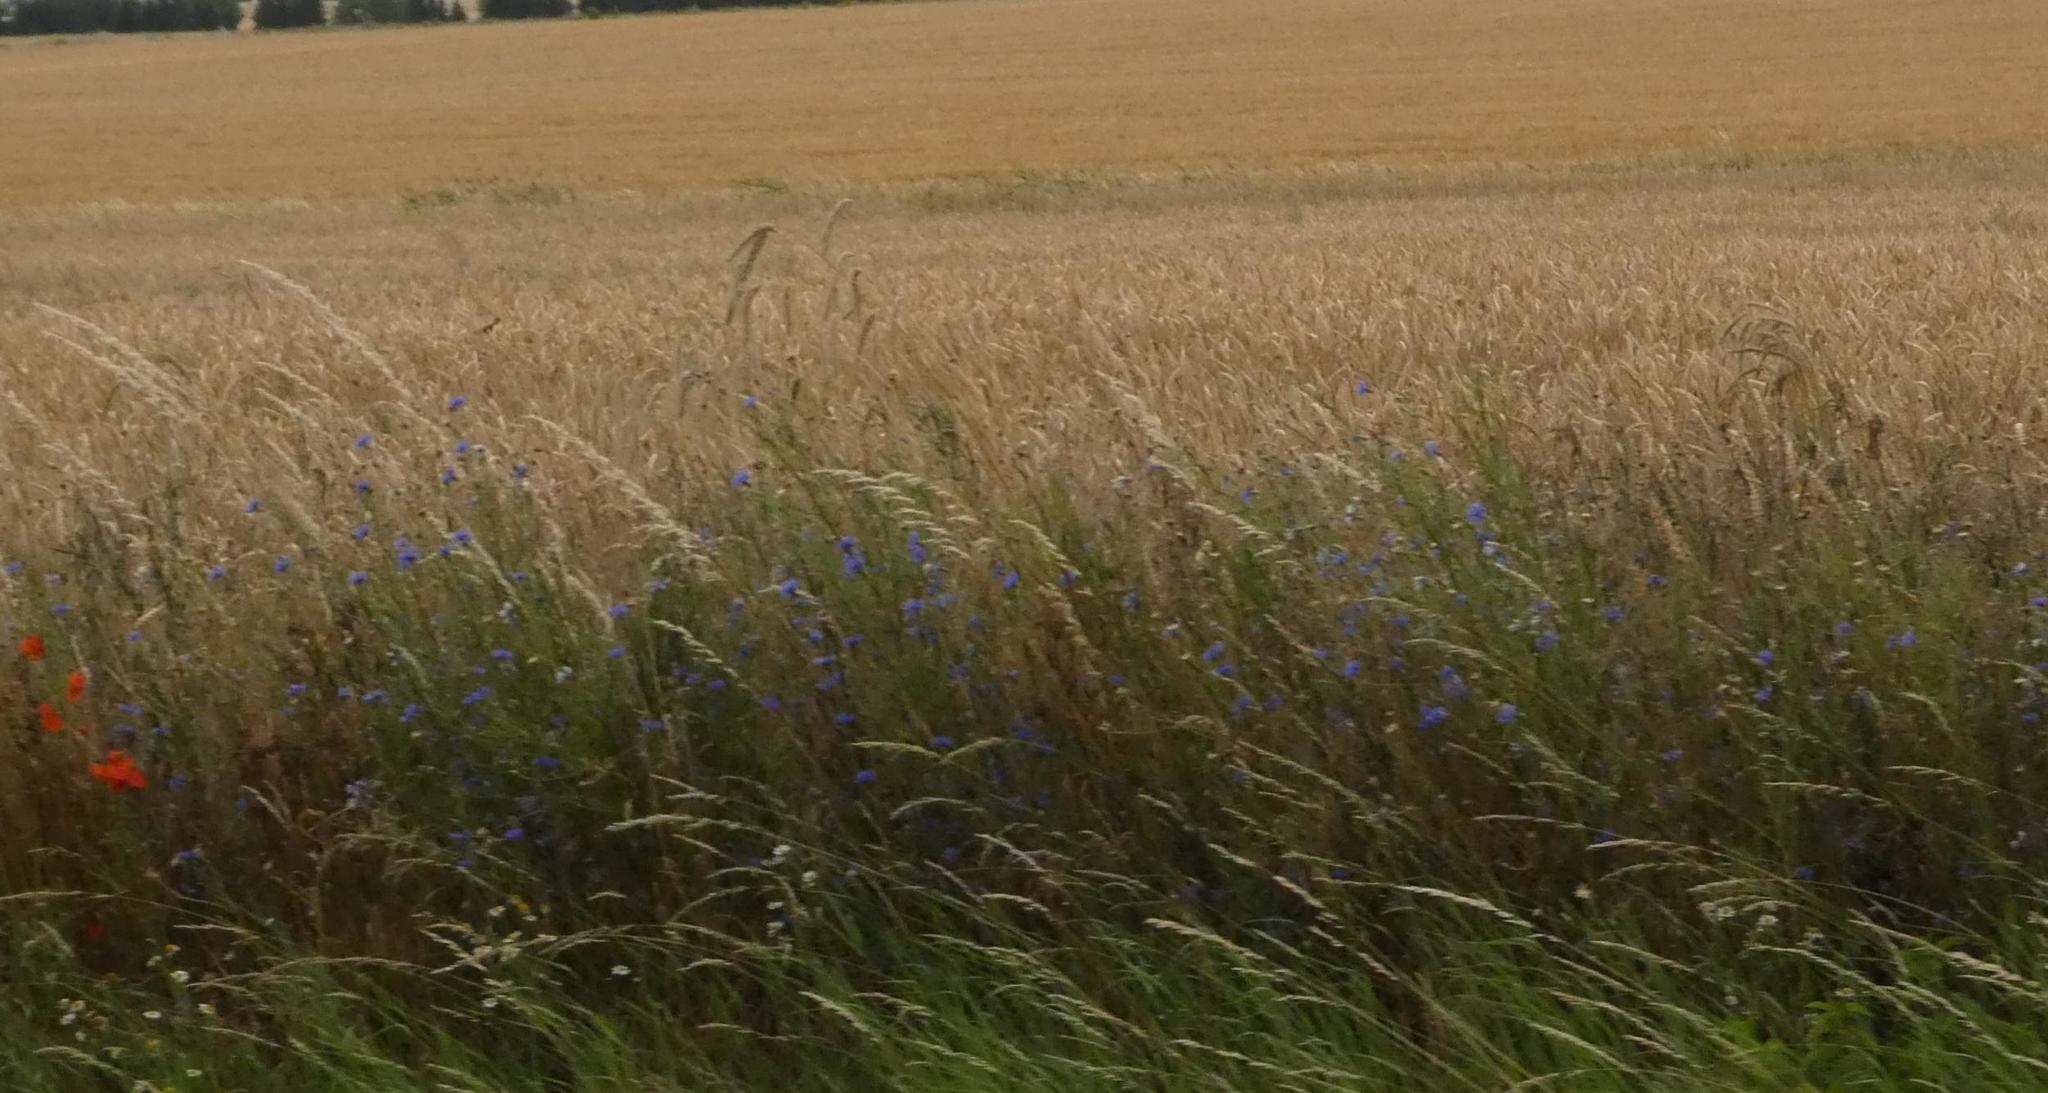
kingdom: Plantae
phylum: Tracheophyta
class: Magnoliopsida
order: Asterales
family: Asteraceae
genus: Centaurea
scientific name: Centaurea cyanus
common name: Cornflower
